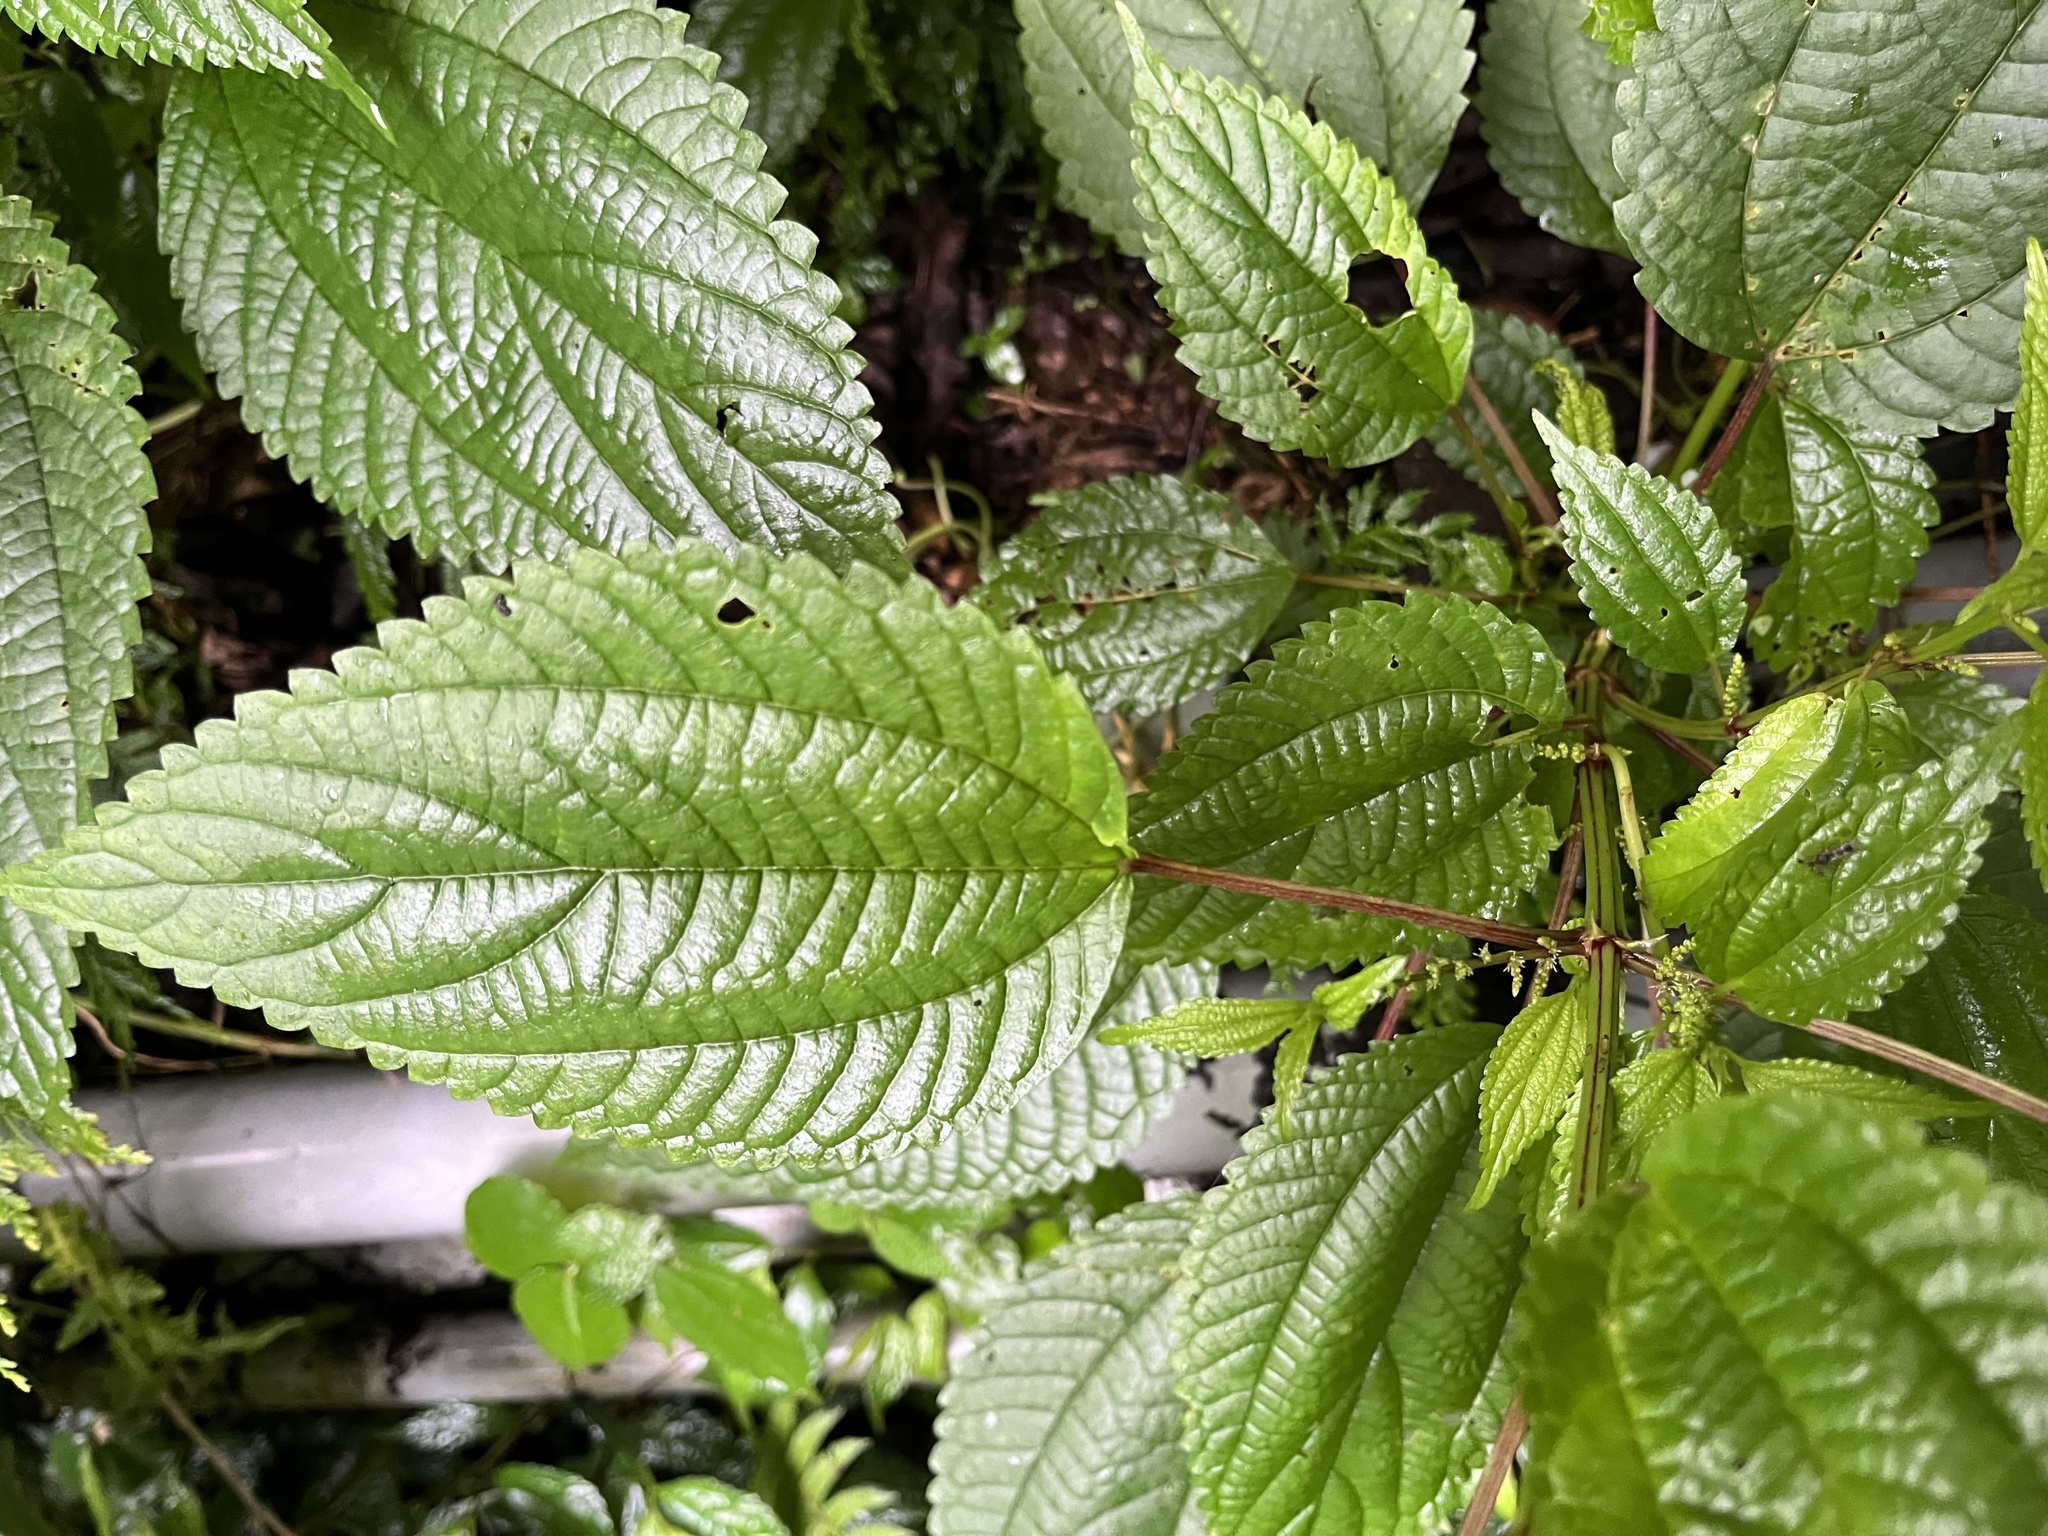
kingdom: Plantae
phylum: Tracheophyta
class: Magnoliopsida
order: Rosales
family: Urticaceae
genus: Boehmeria
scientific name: Boehmeria sieboldiana
